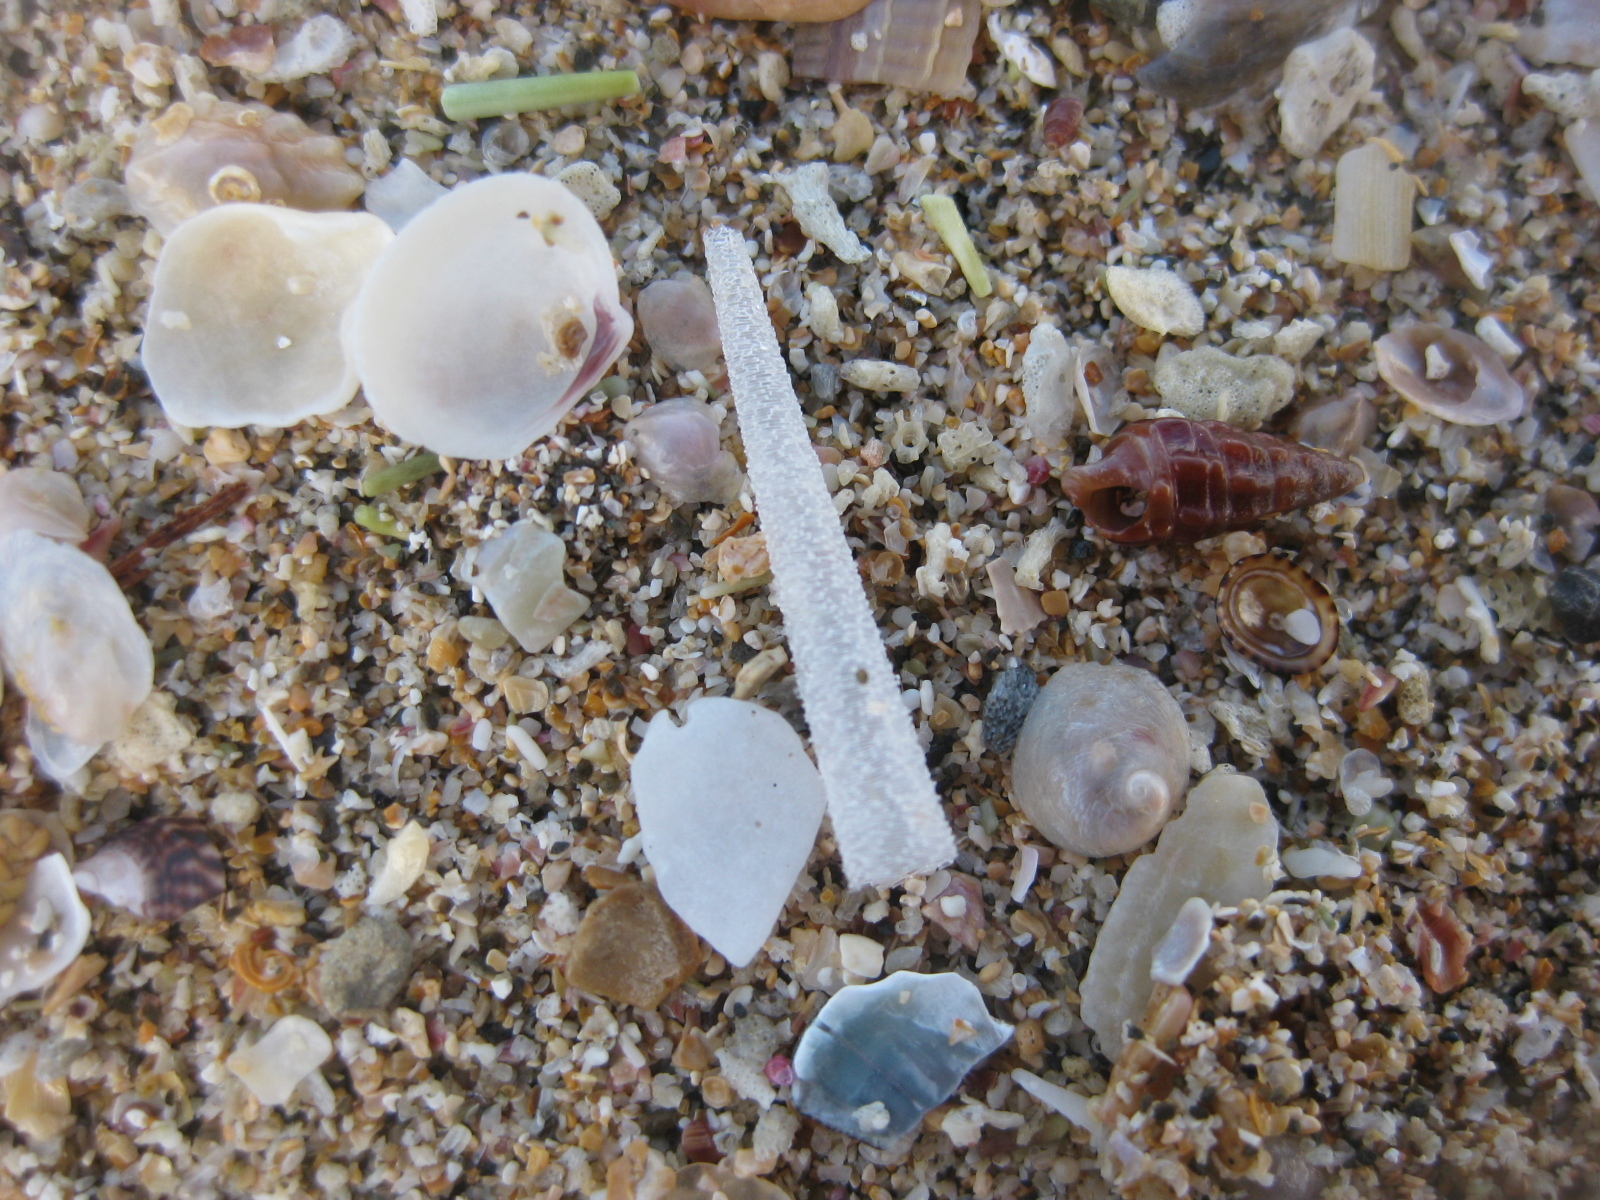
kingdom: Animalia
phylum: Annelida
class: Polychaeta
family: Pectinariidae
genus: Lagis
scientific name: Lagis australis
